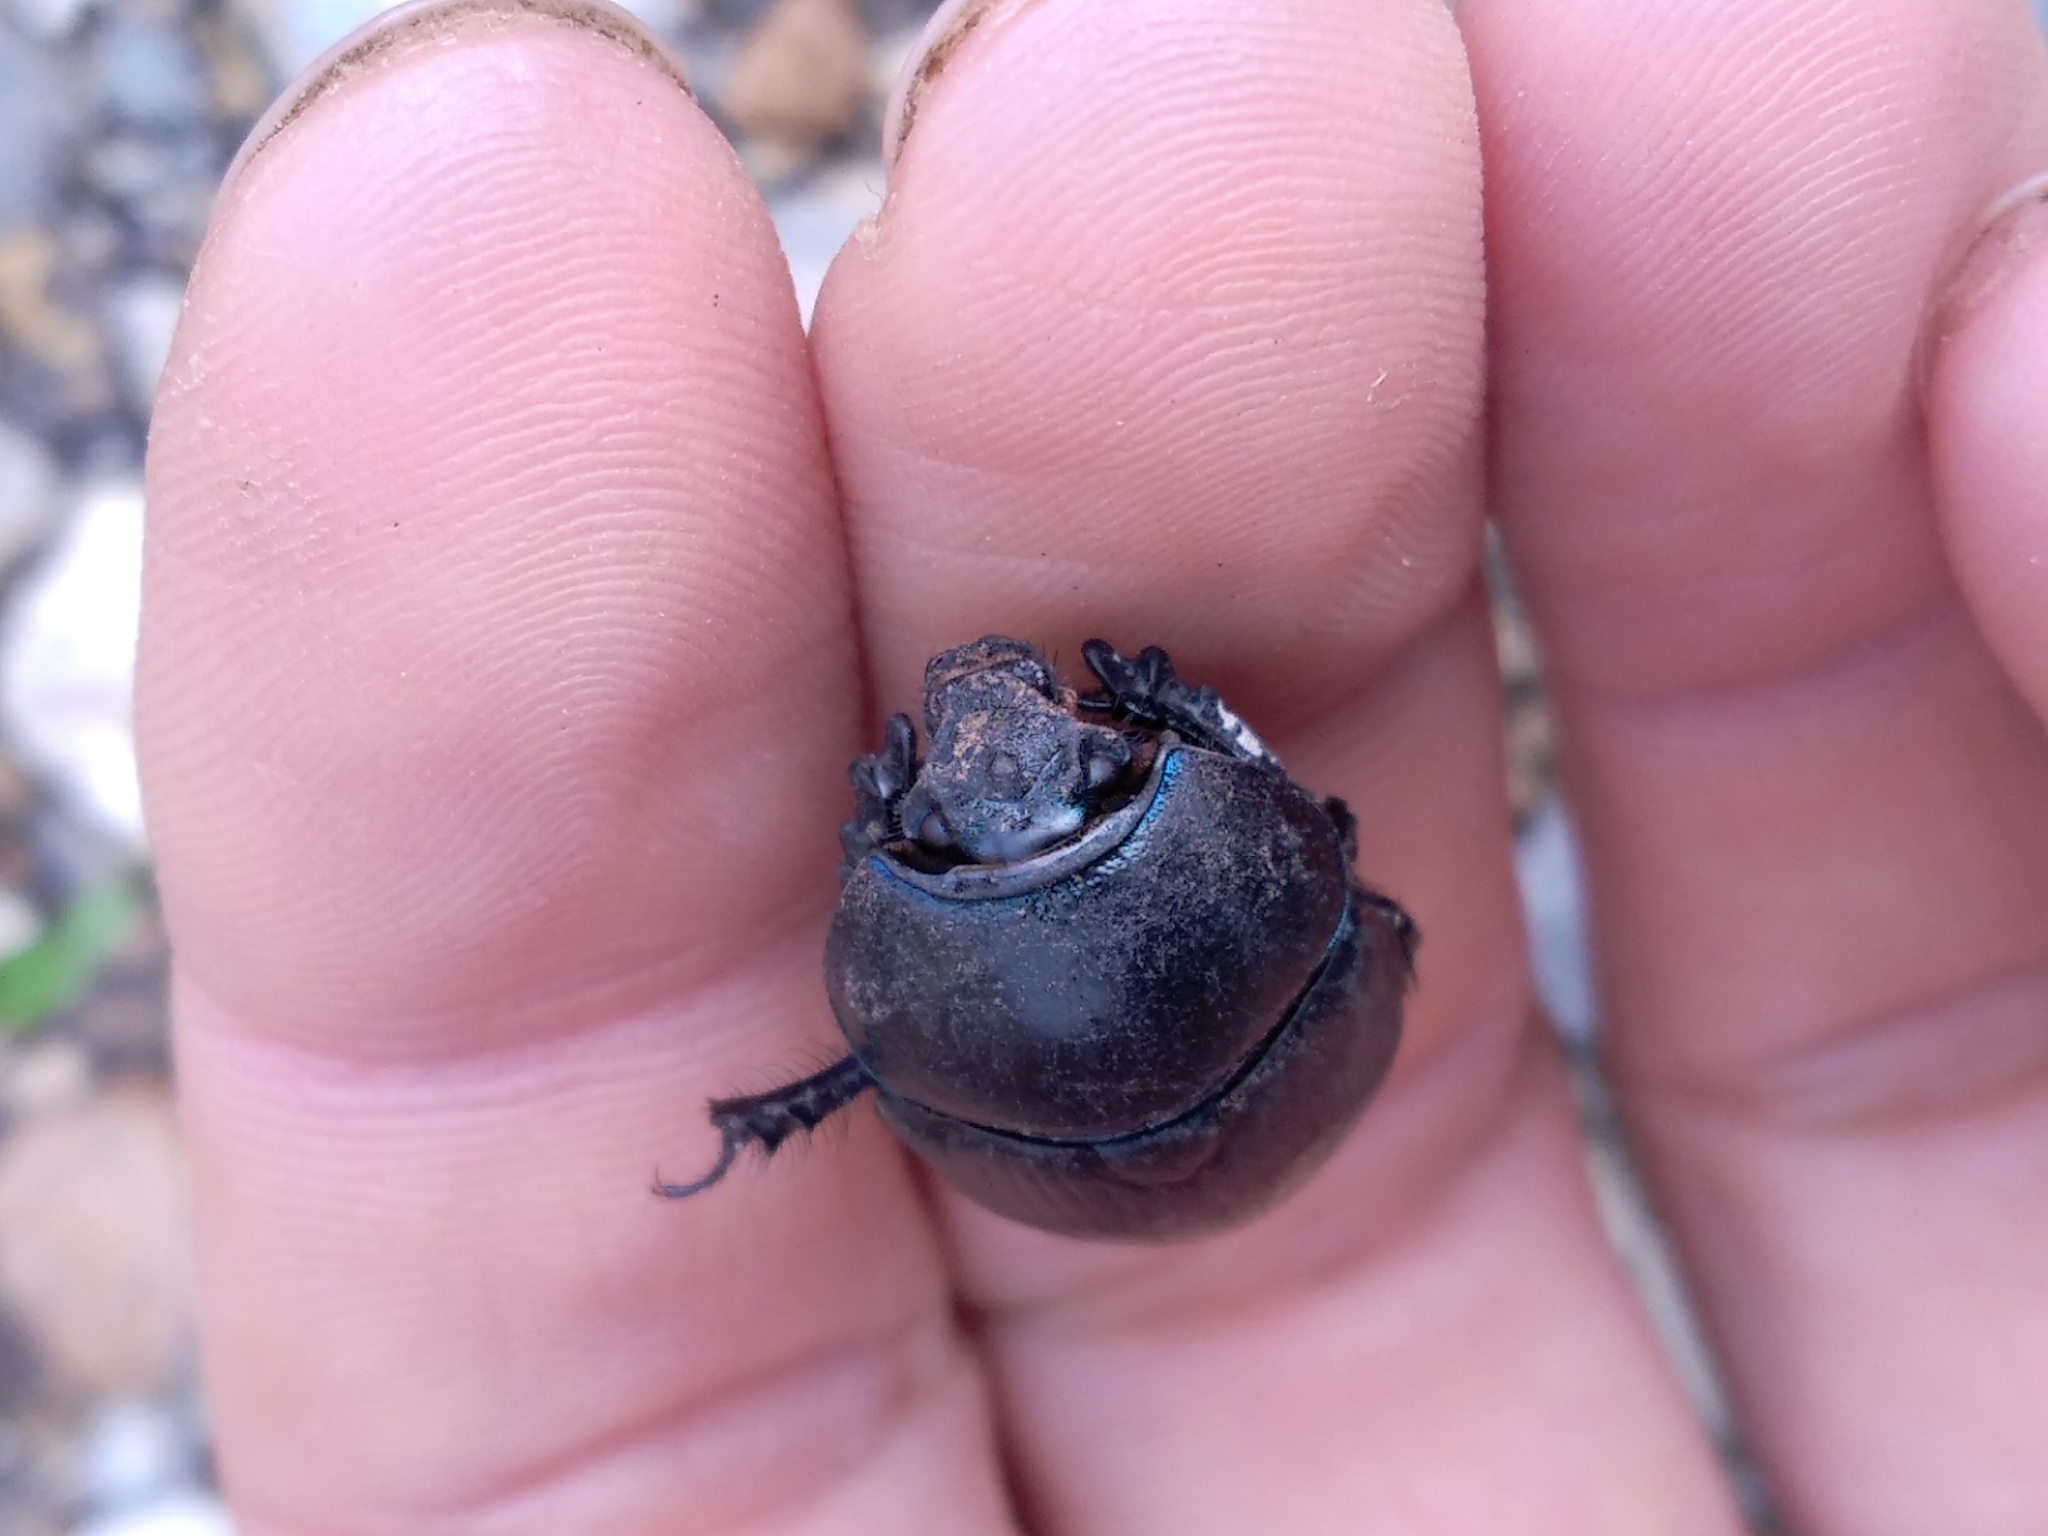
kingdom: Animalia
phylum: Arthropoda
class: Insecta
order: Coleoptera
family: Geotrupidae
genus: Geotrupes
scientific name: Geotrupes spiniger
